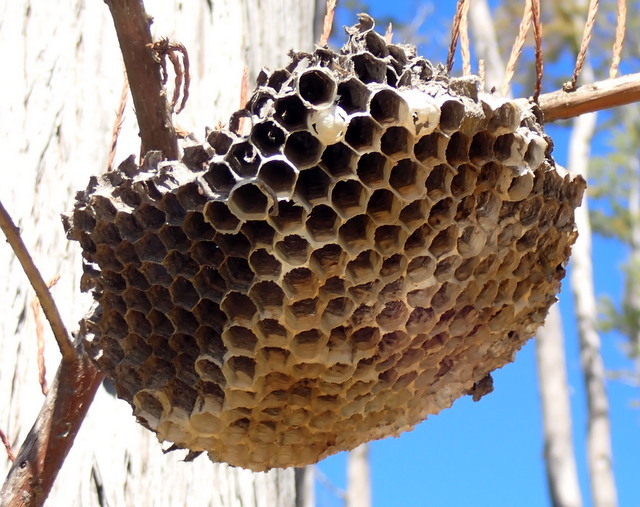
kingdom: Animalia
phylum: Arthropoda
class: Insecta
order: Hymenoptera
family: Vespidae
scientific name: Vespidae
